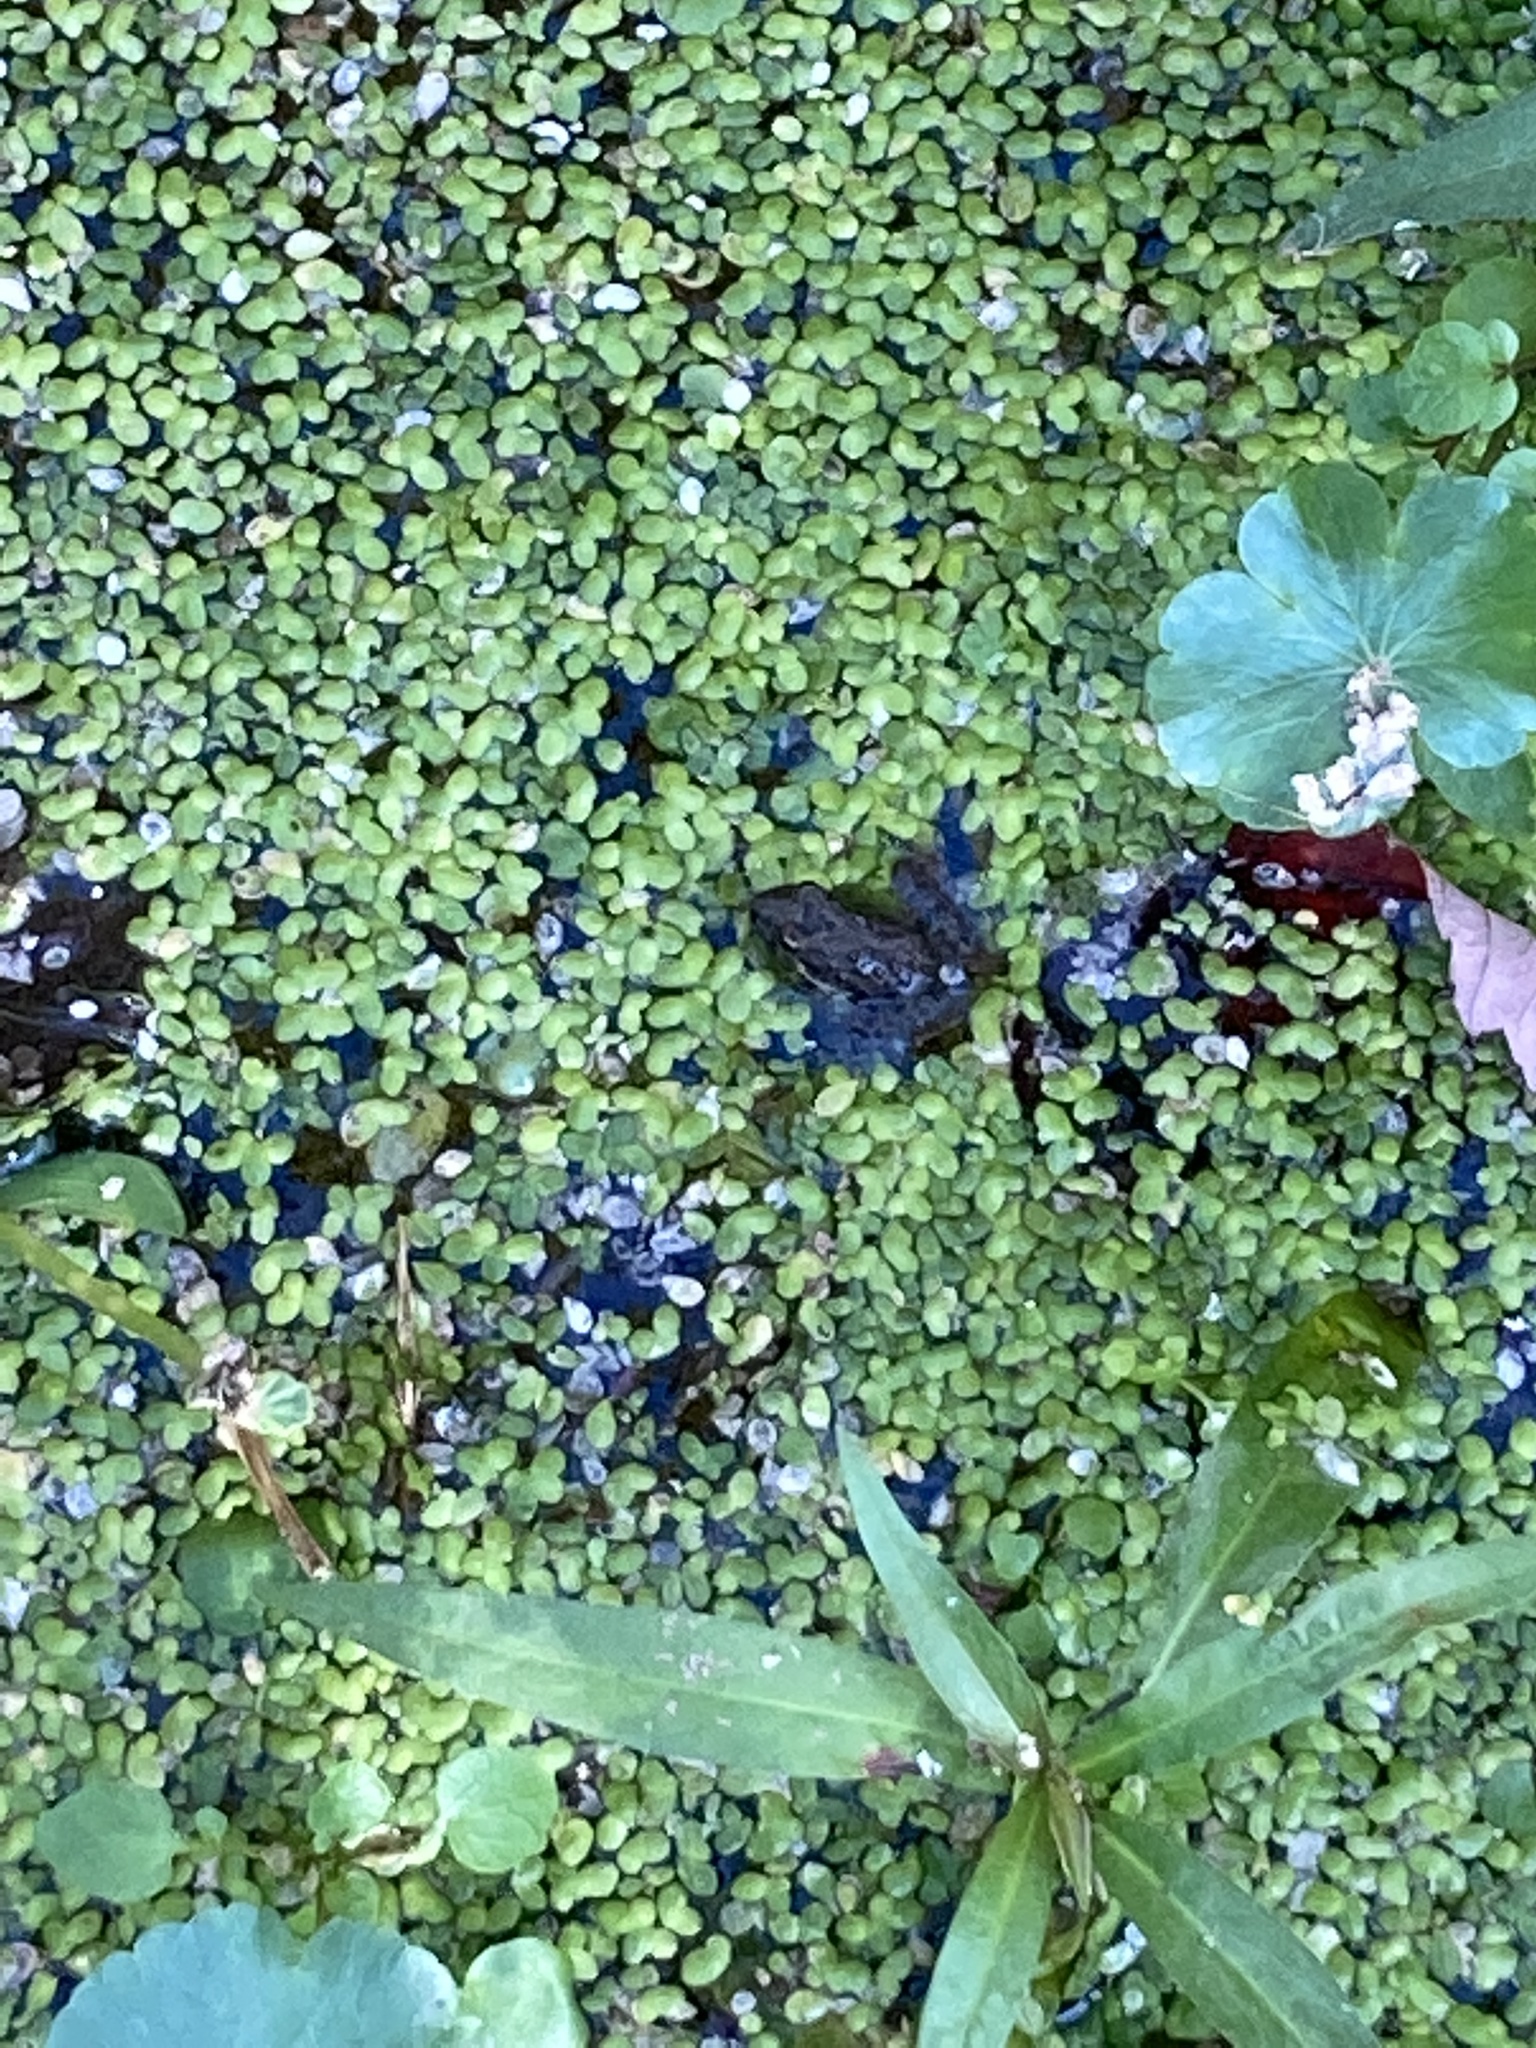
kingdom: Animalia
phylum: Chordata
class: Amphibia
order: Anura
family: Hylidae
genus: Acris
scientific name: Acris blanchardi
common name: Blanchard's cricket frog
